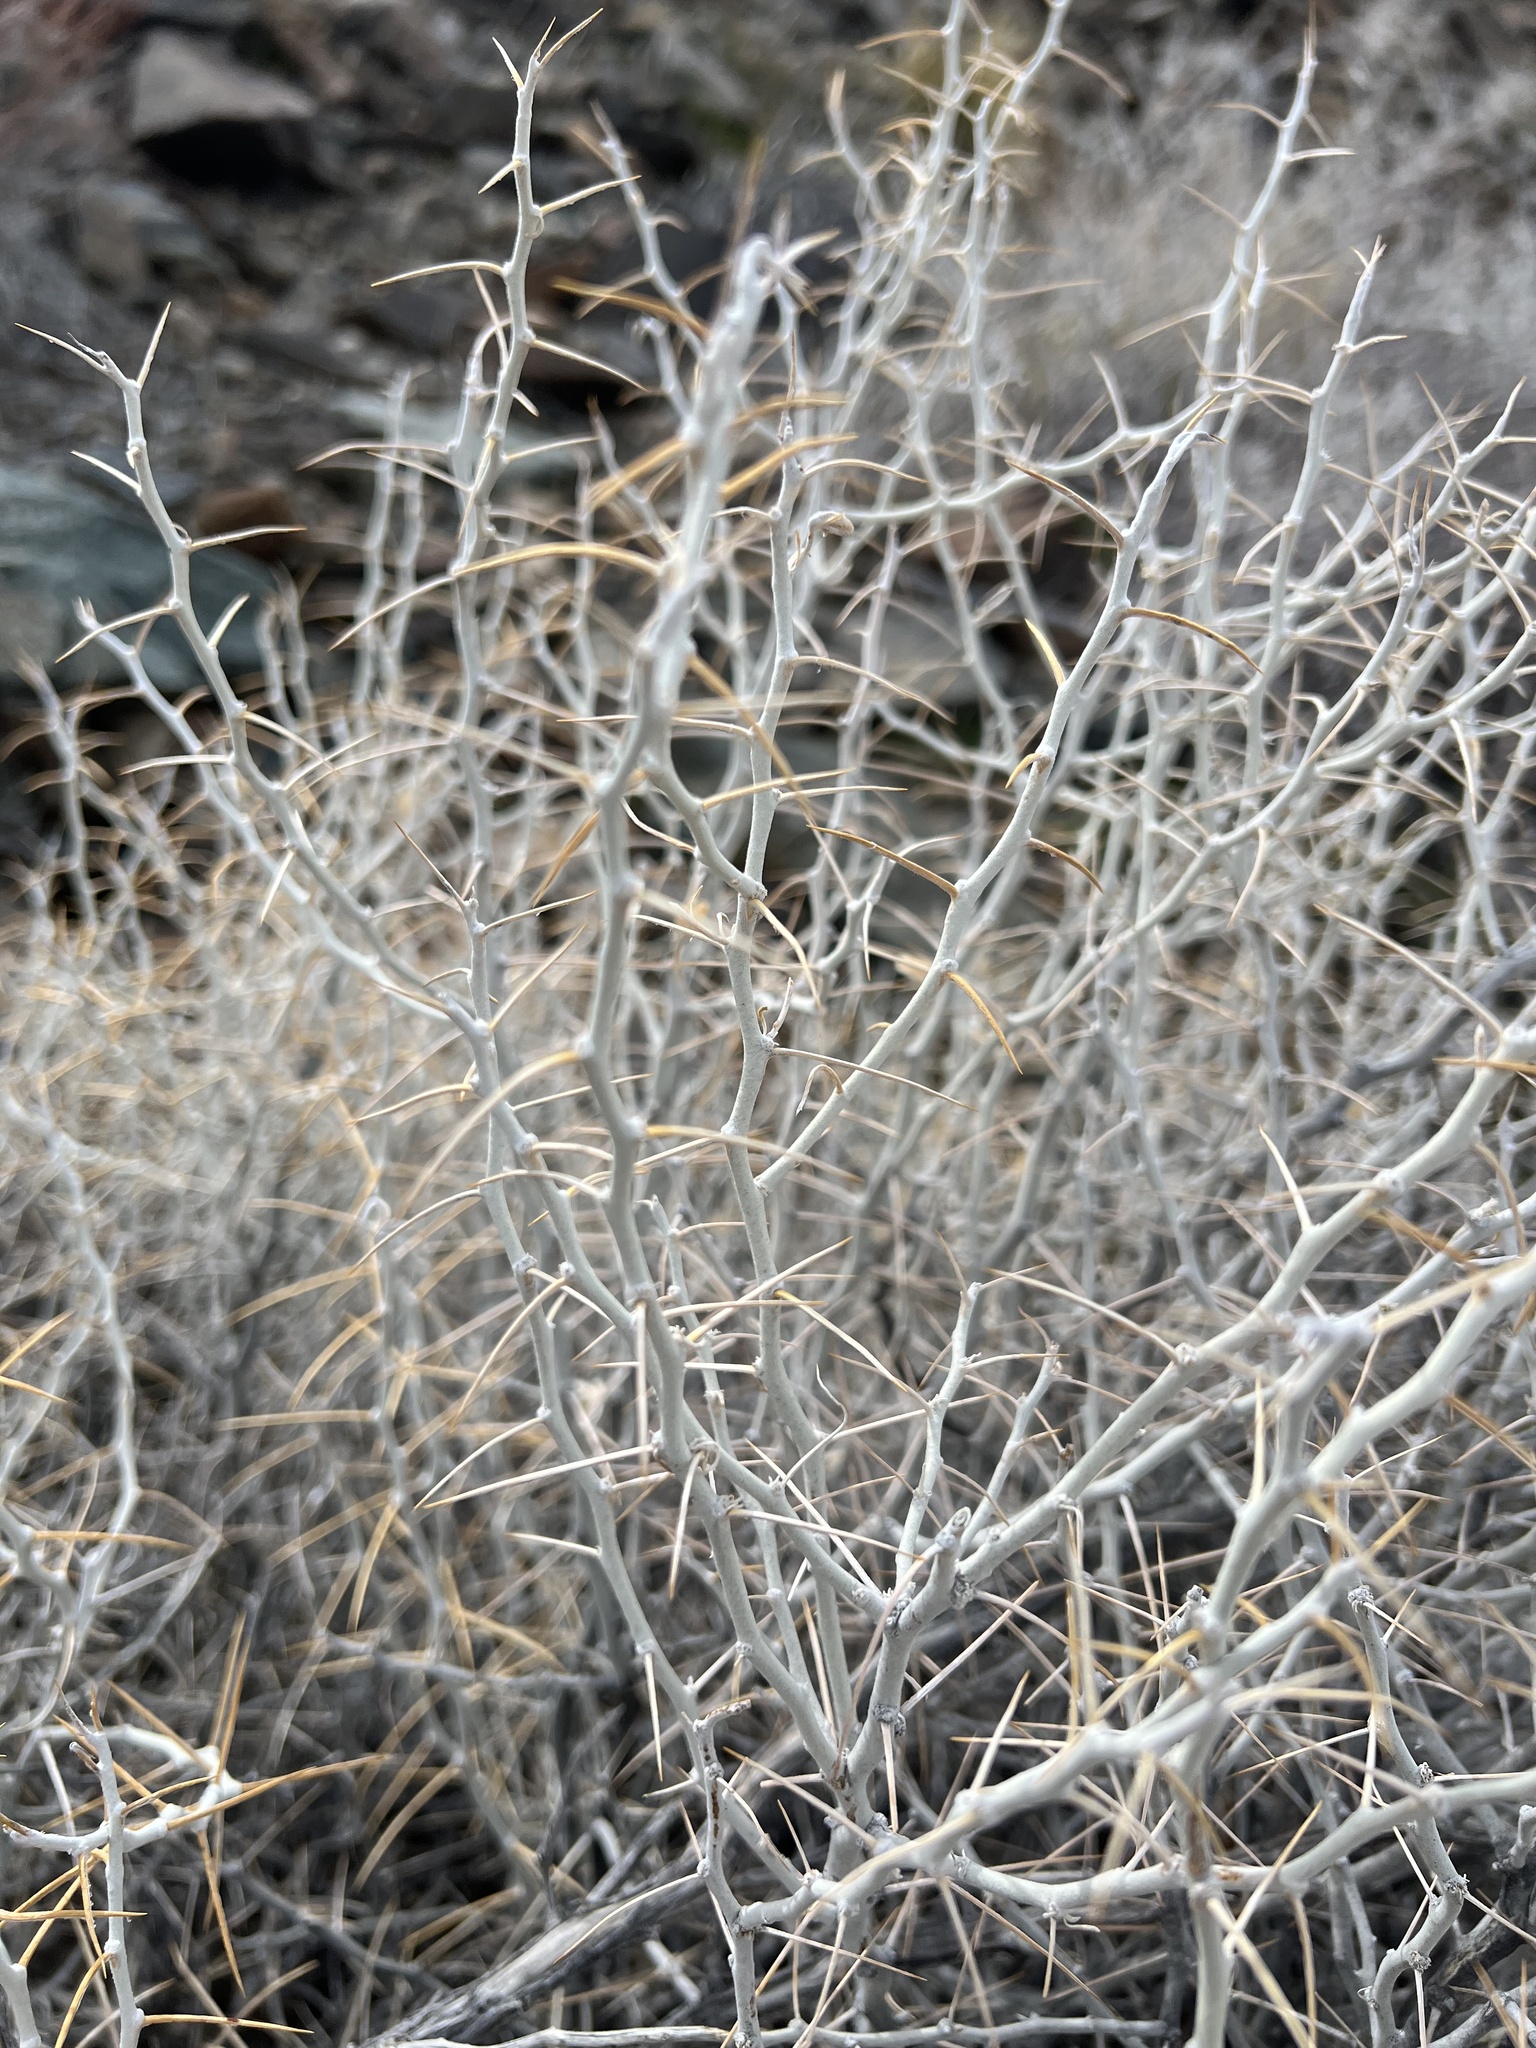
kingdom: Plantae
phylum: Tracheophyta
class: Magnoliopsida
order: Asterales
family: Asteraceae
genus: Tetradymia
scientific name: Tetradymia axillaris
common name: Long-spine horsebrush
